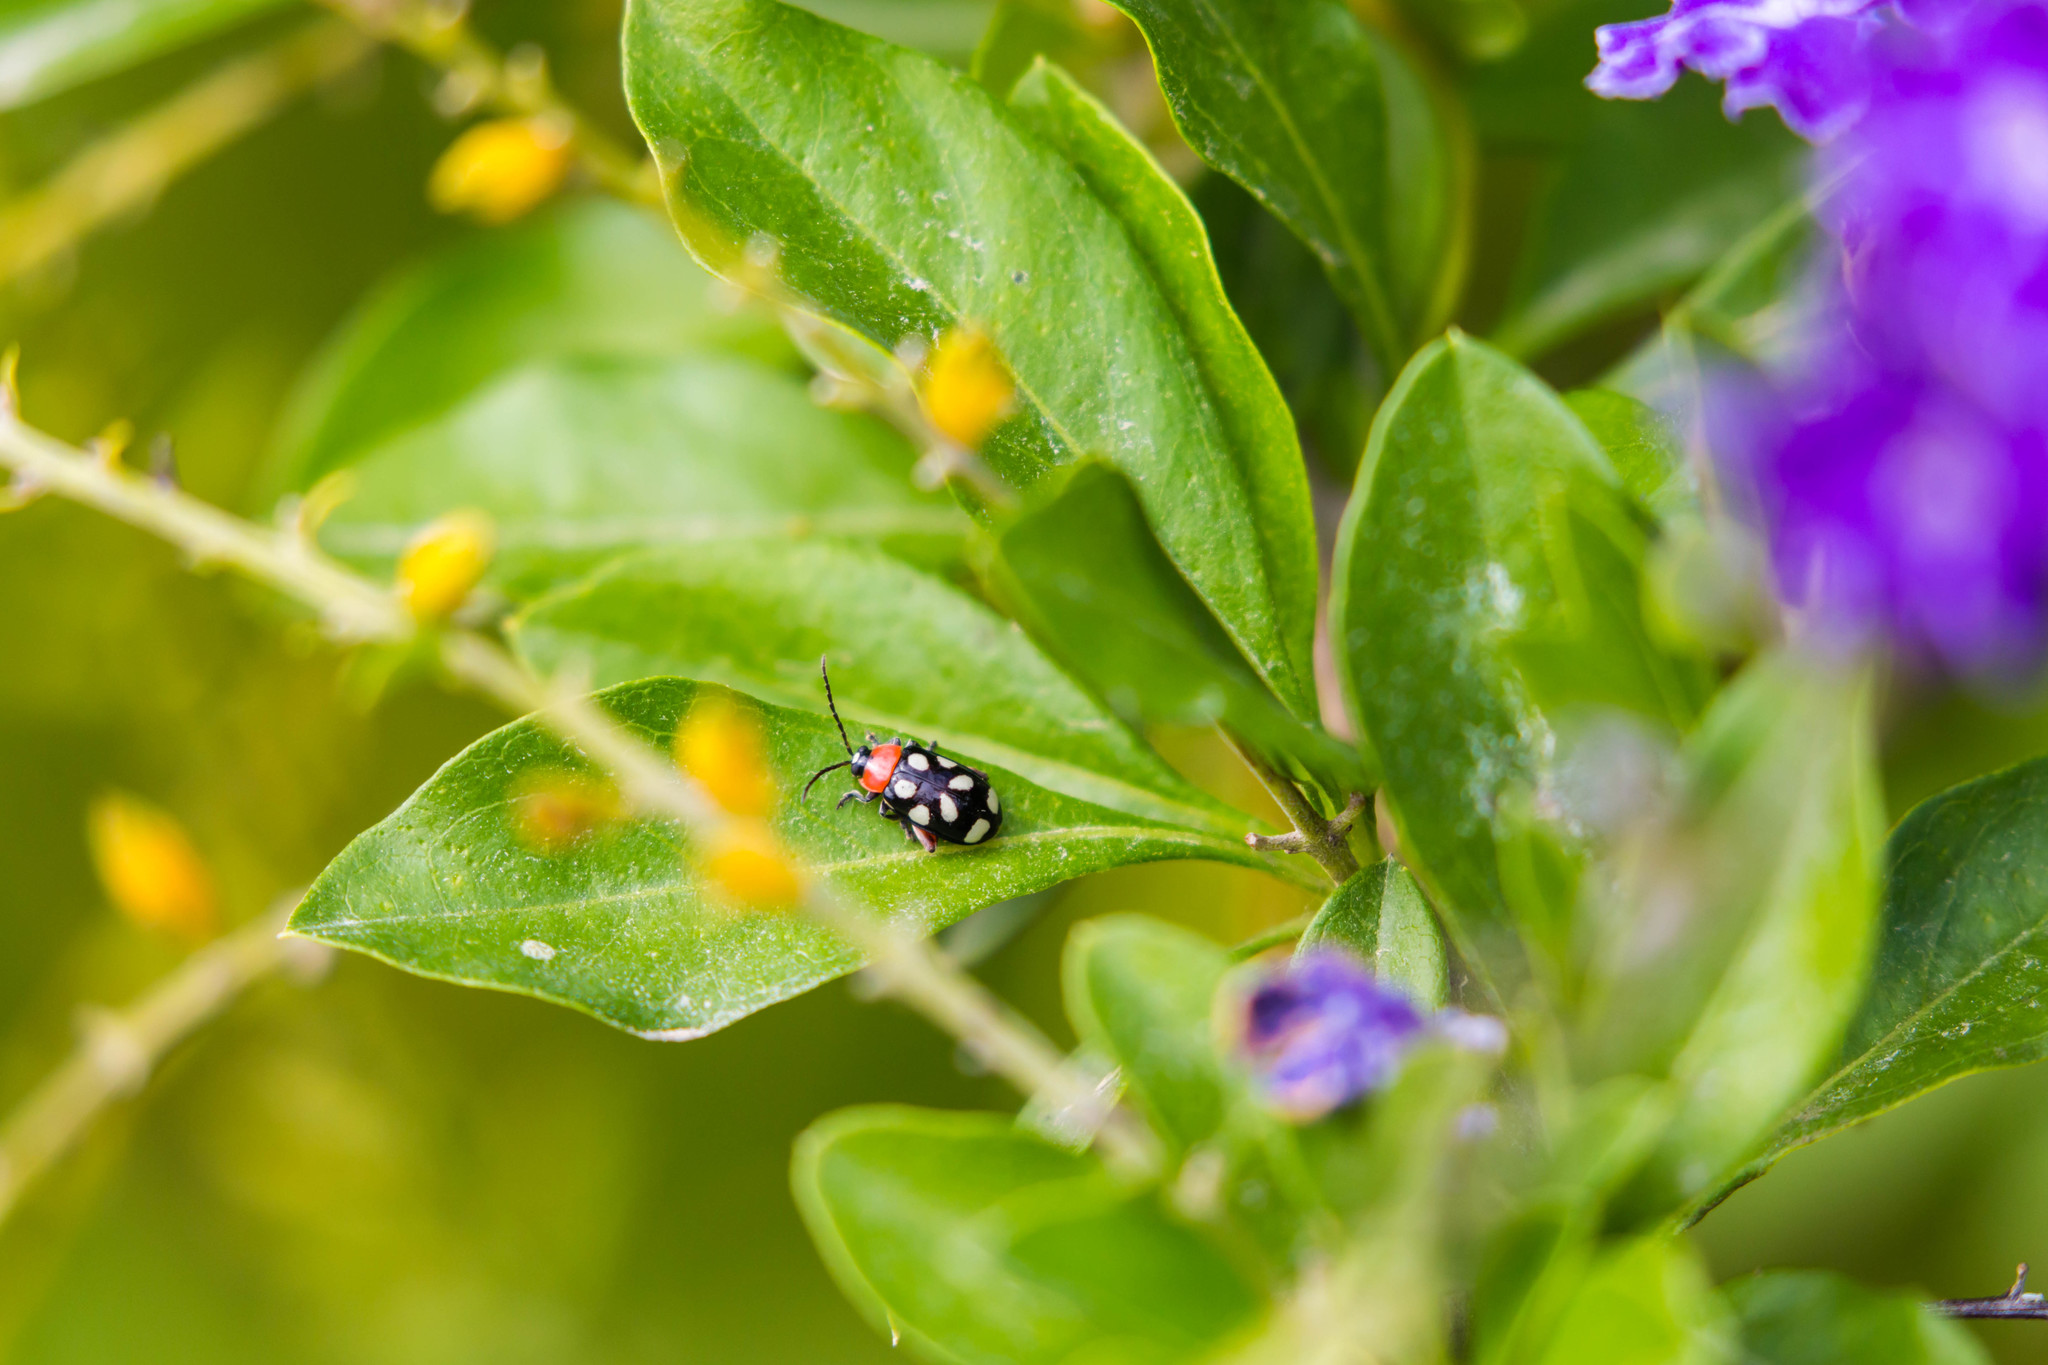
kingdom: Animalia
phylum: Arthropoda
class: Insecta
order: Coleoptera
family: Chrysomelidae
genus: Omophoita
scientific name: Omophoita cyanipennis
